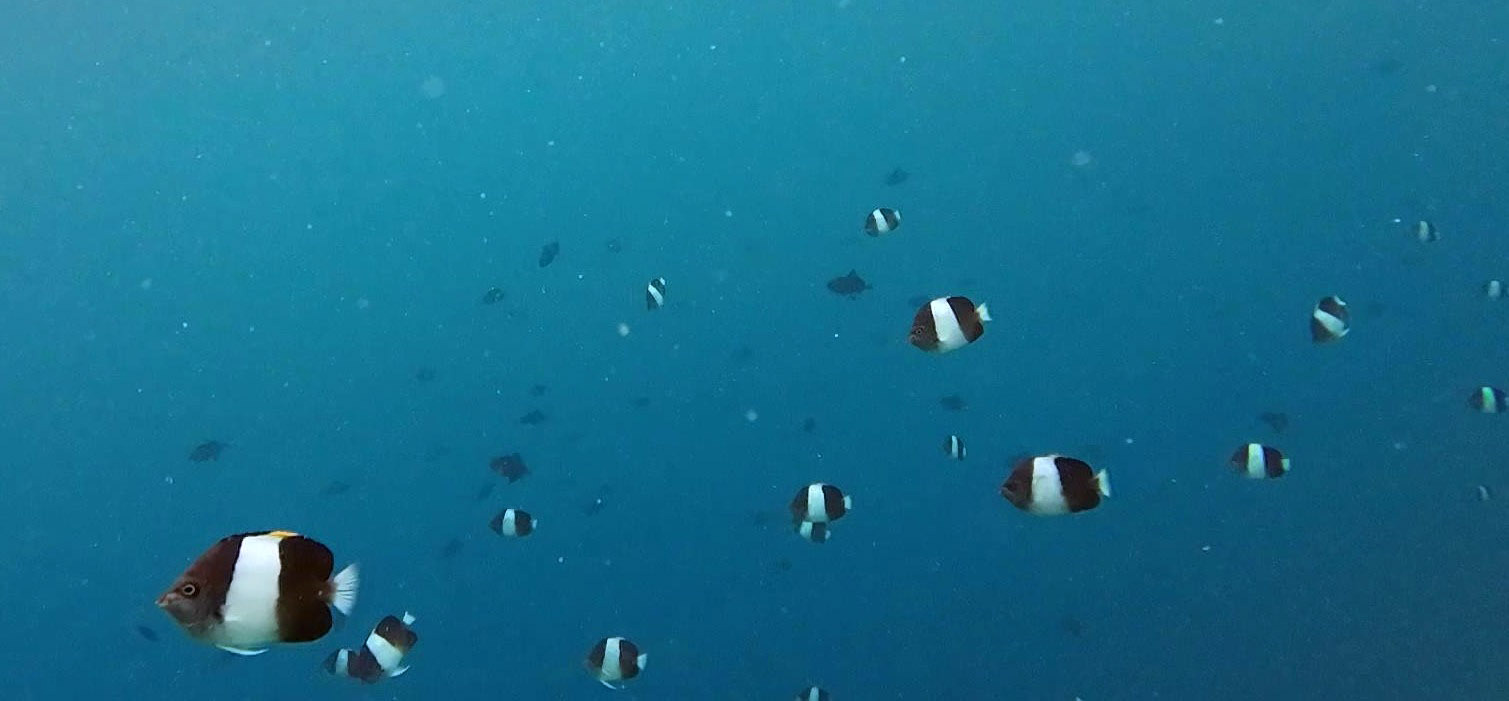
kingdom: Animalia
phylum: Chordata
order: Perciformes
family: Chaetodontidae
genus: Hemitaurichthys
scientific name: Hemitaurichthys zoster
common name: Brown-and-white butterflyfish
